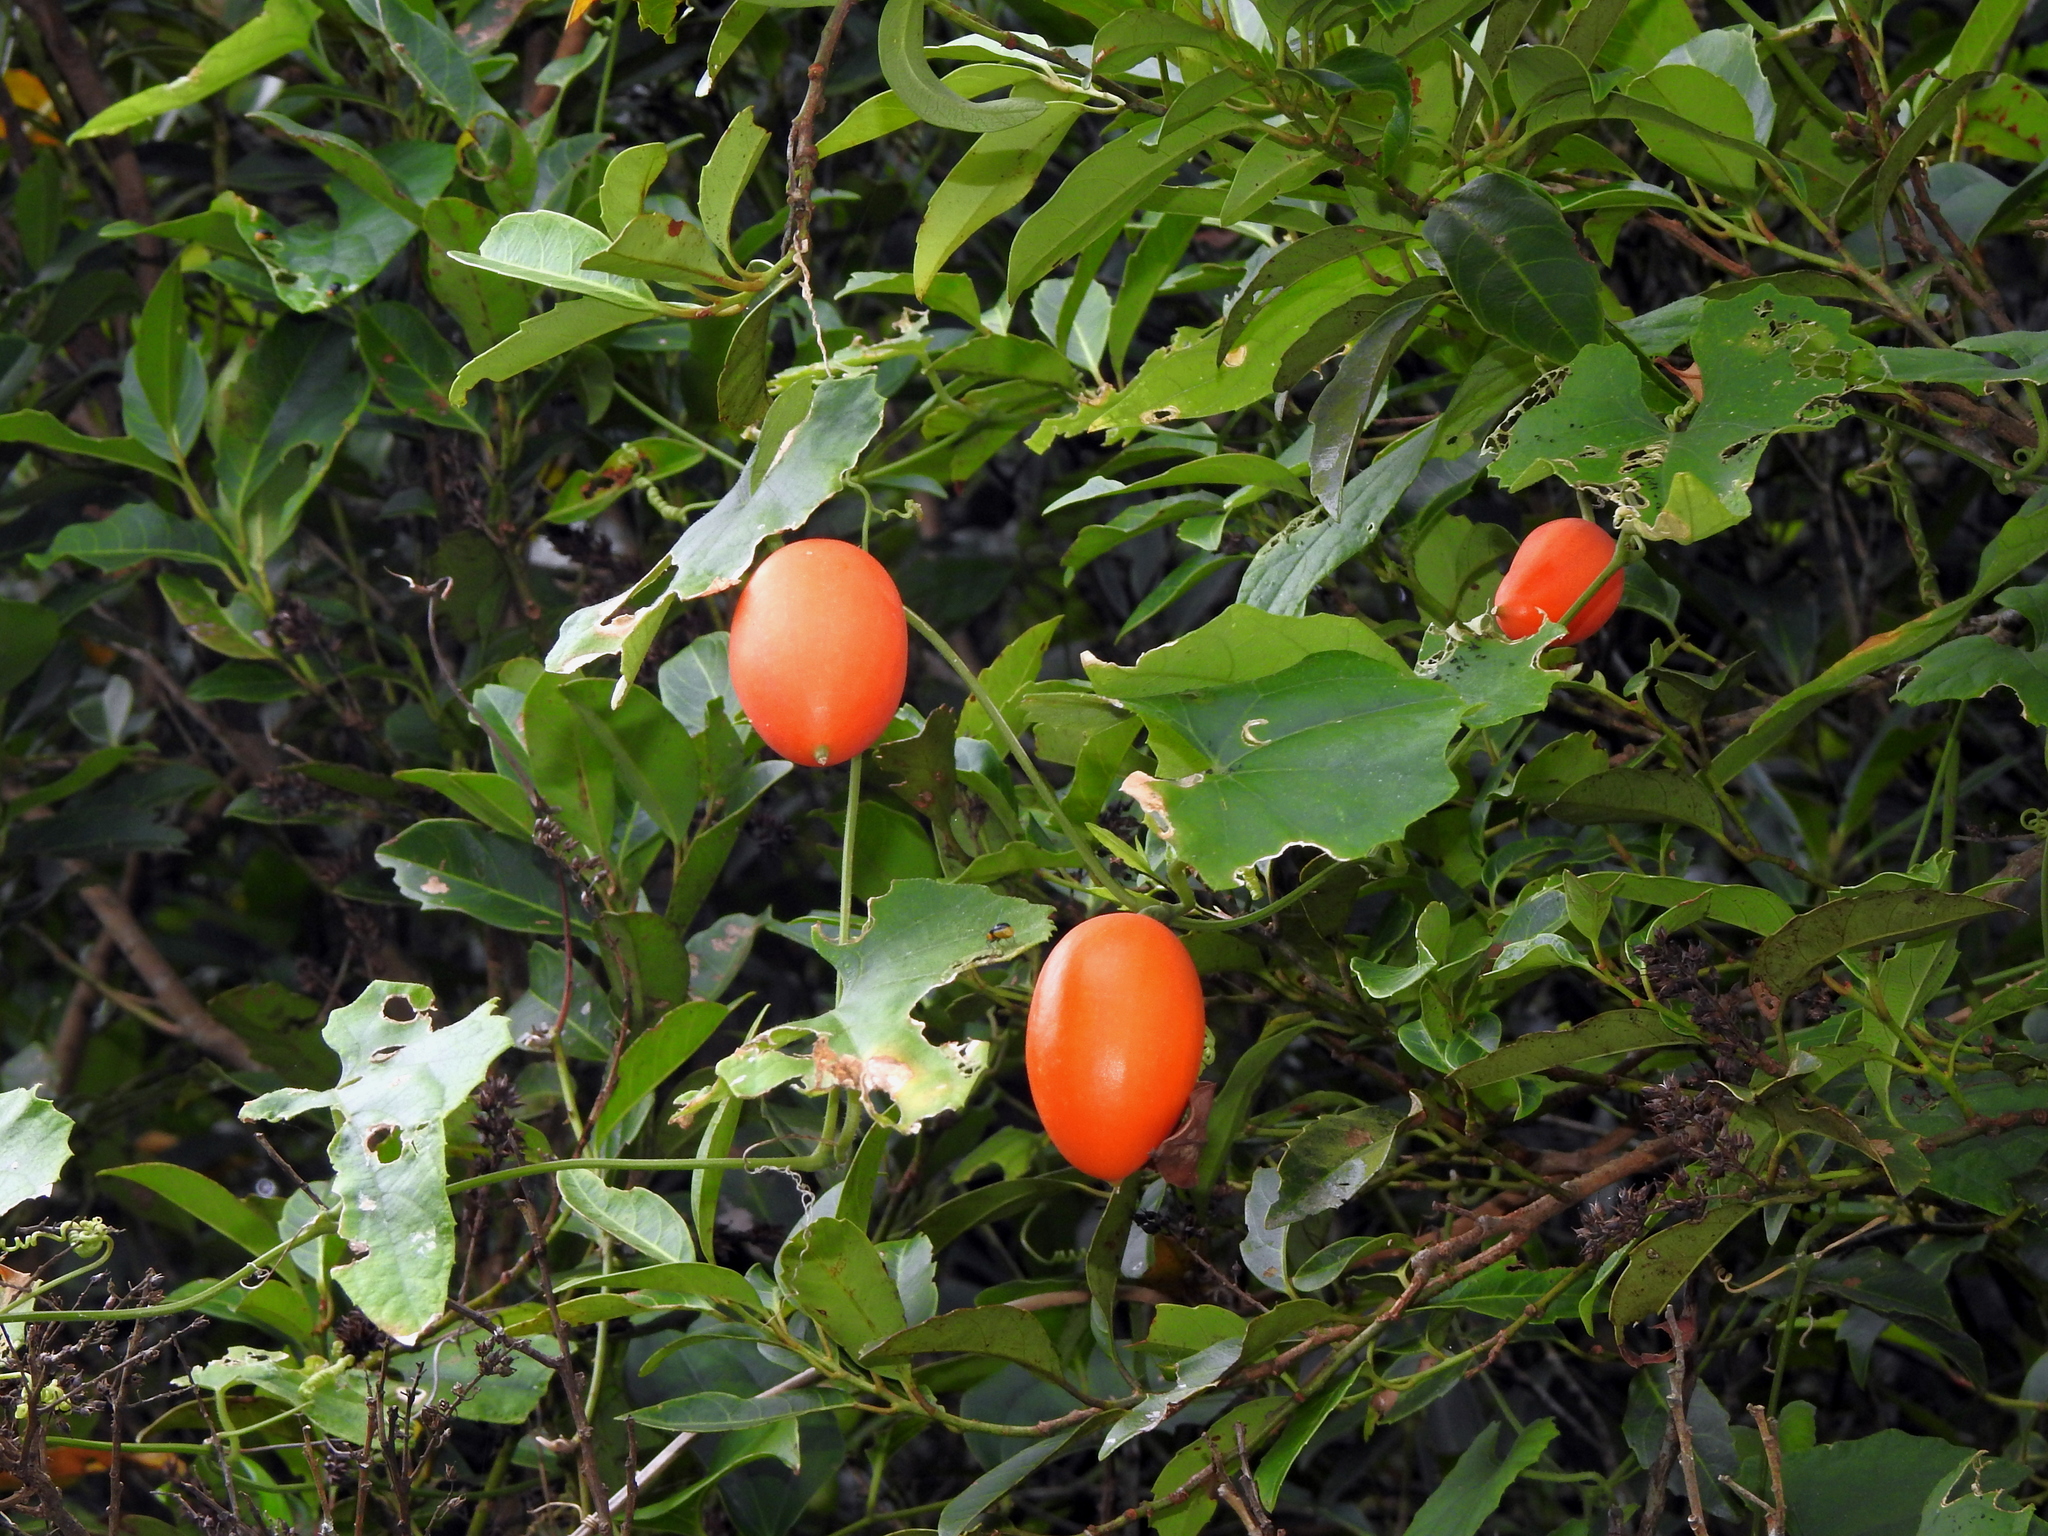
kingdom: Plantae
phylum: Tracheophyta
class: Magnoliopsida
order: Cucurbitales
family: Cucurbitaceae
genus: Trichosanthes
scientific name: Trichosanthes cucumeroides
